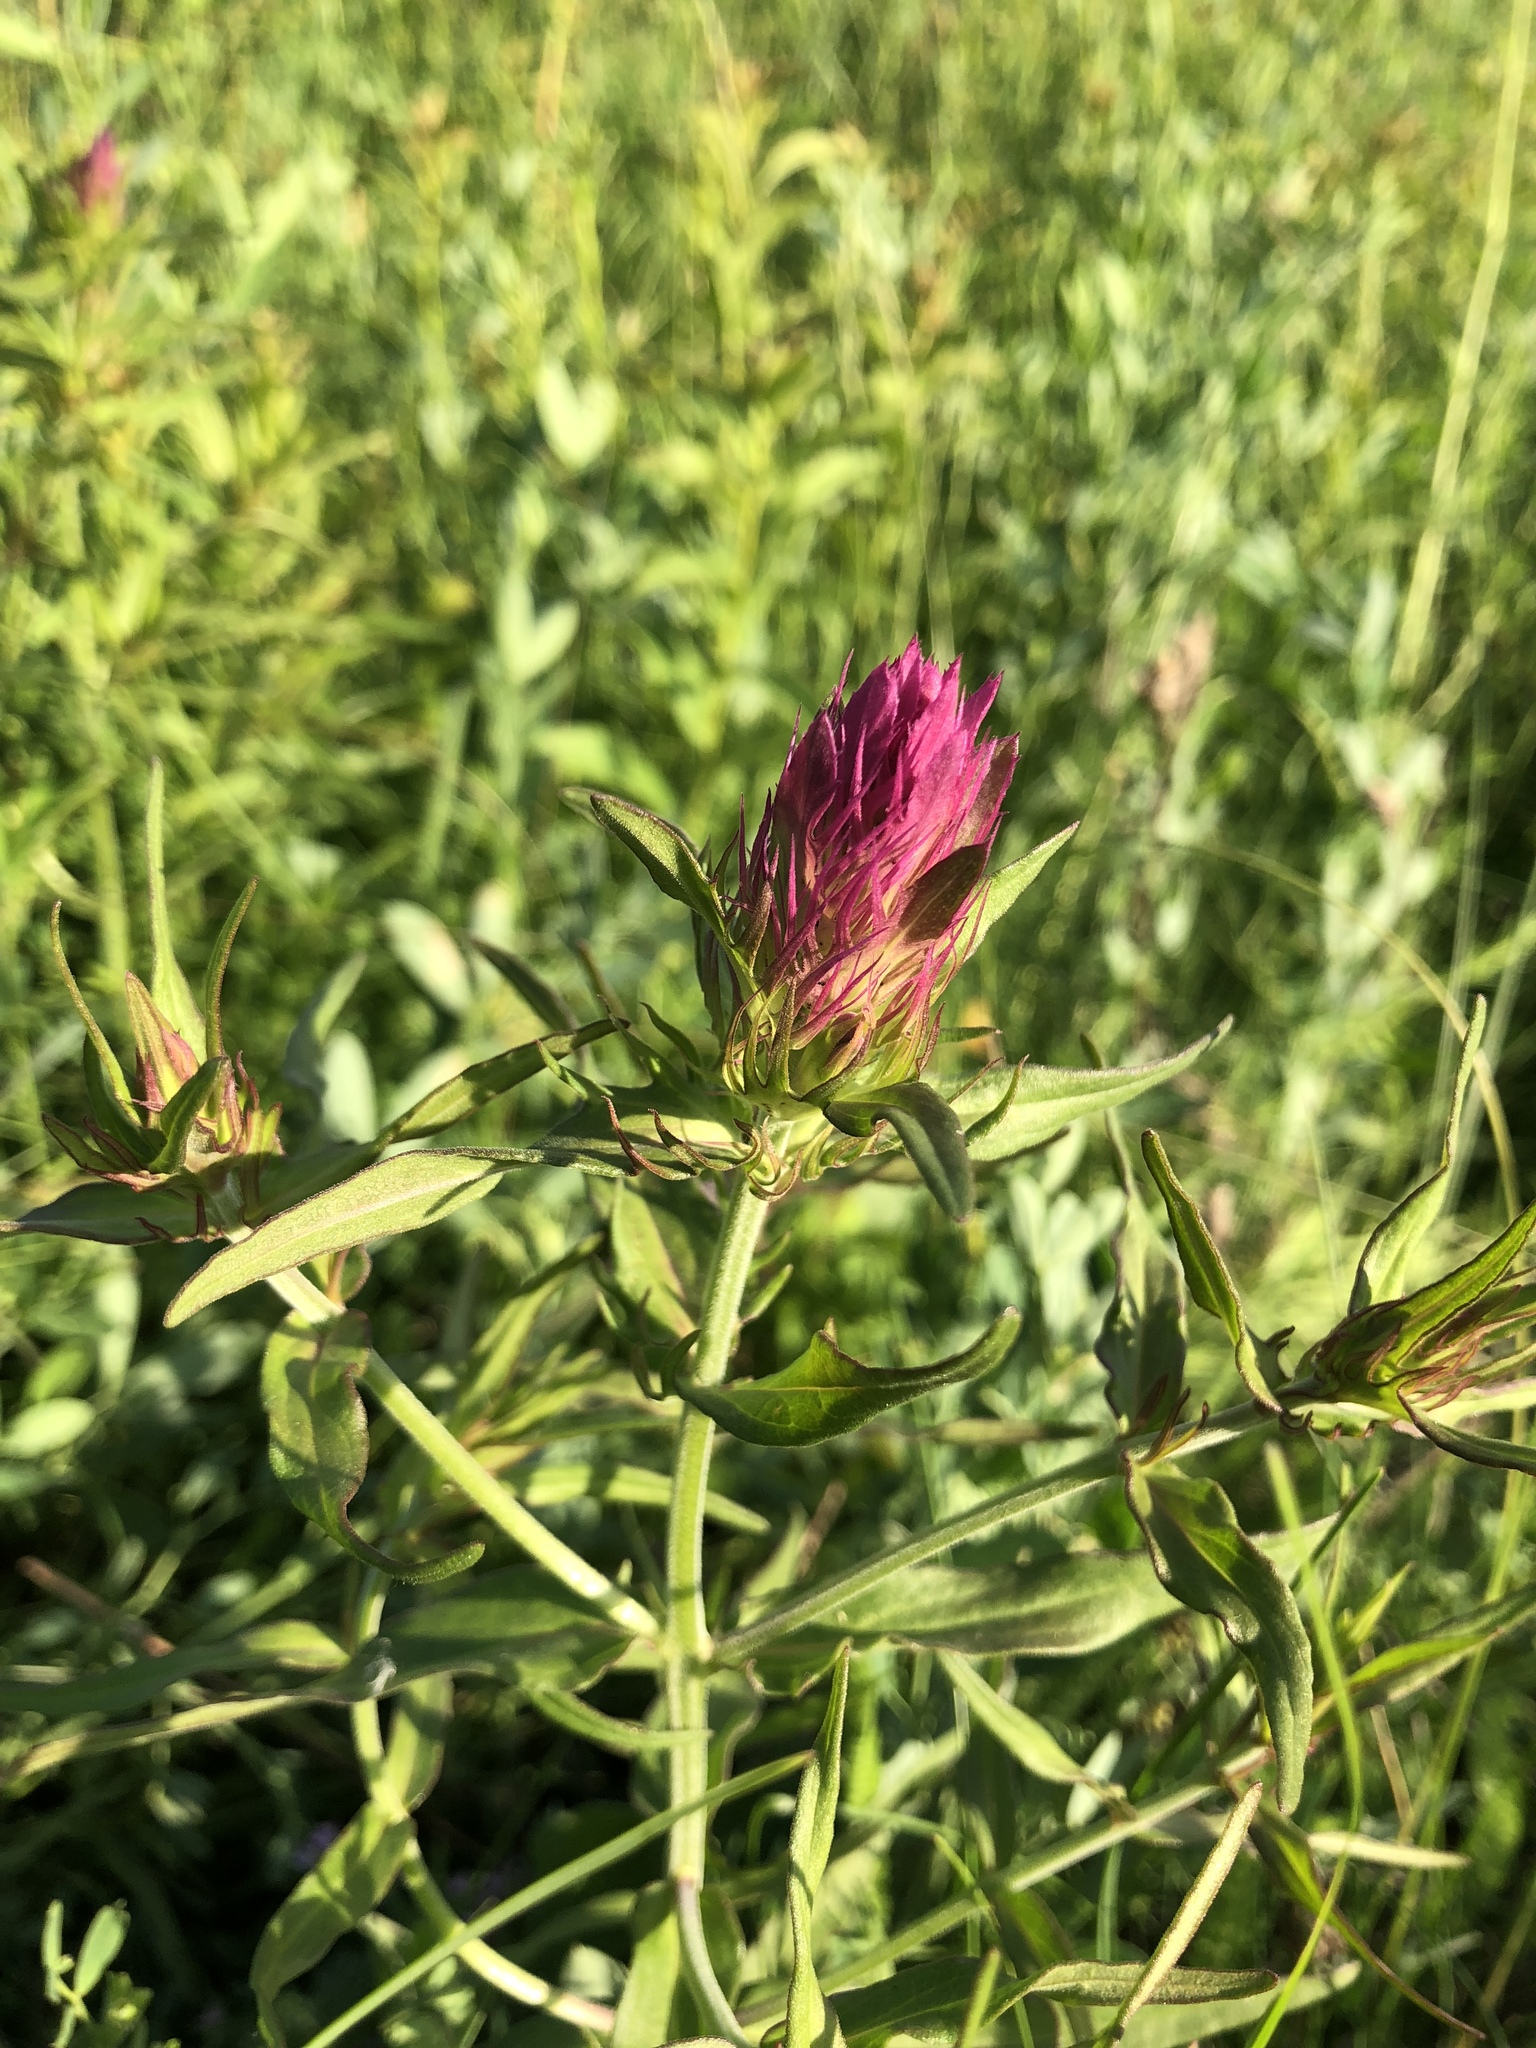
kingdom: Plantae
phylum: Tracheophyta
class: Magnoliopsida
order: Lamiales
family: Orobanchaceae
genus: Melampyrum
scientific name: Melampyrum arvense
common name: Field cow-wheat
